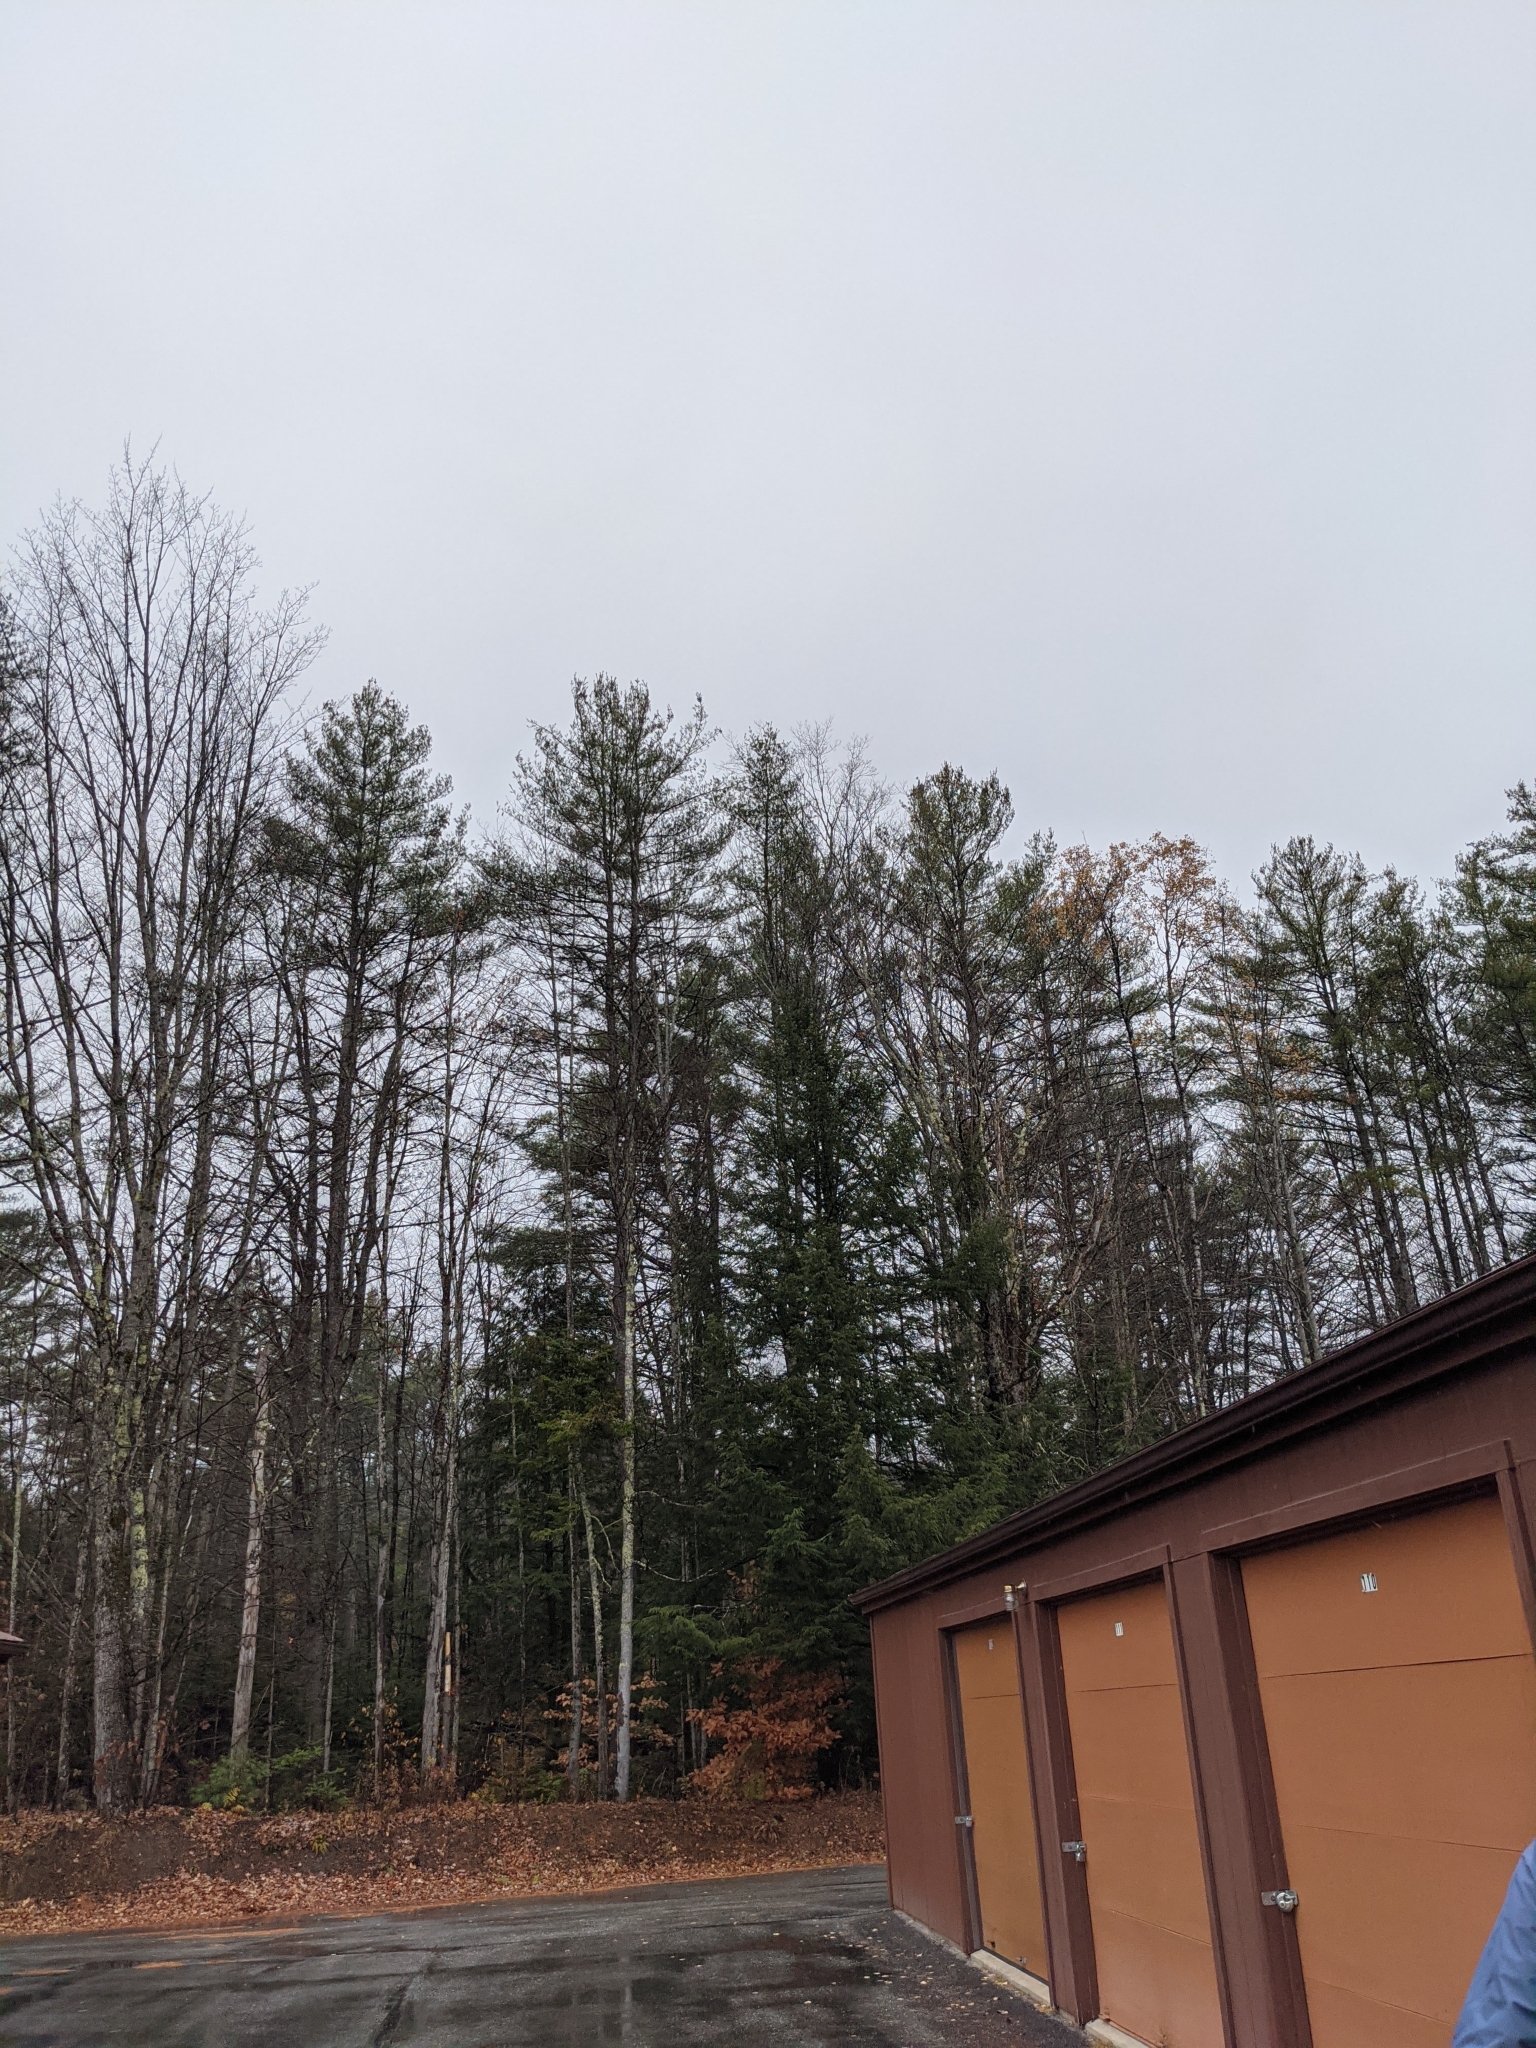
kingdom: Plantae
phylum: Tracheophyta
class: Pinopsida
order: Pinales
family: Pinaceae
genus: Pinus
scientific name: Pinus strobus
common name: Weymouth pine
